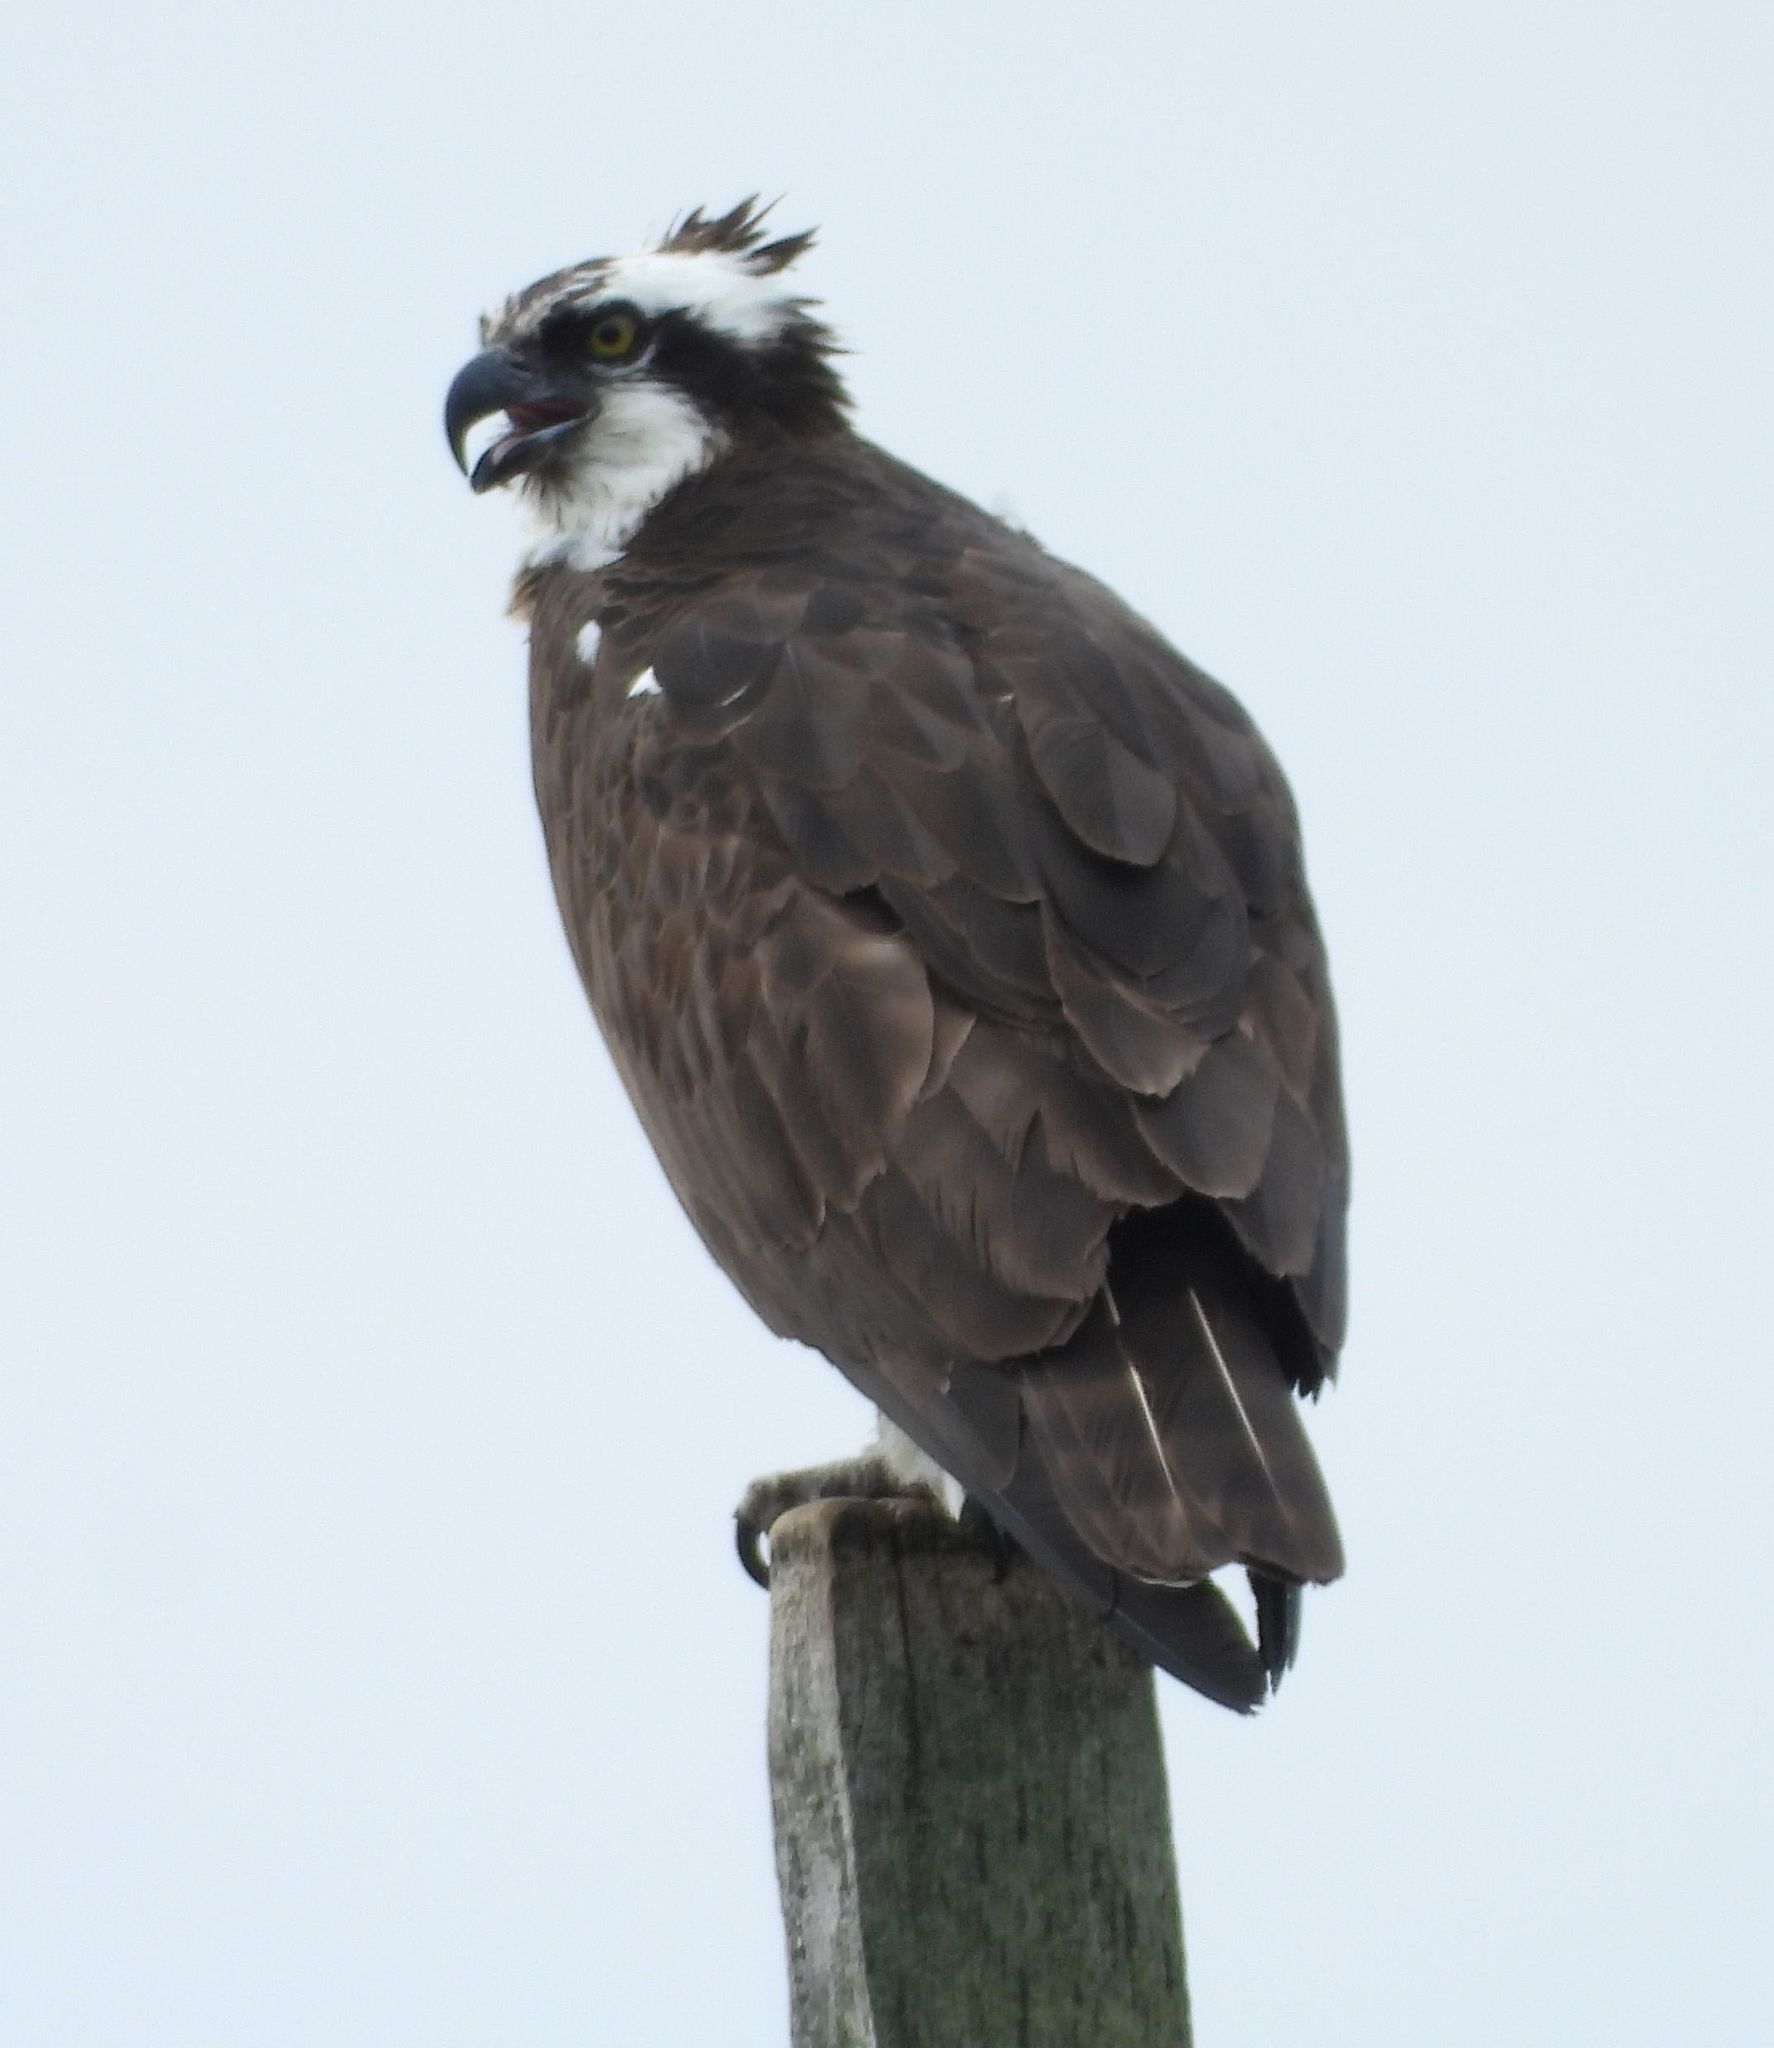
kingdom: Animalia
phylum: Chordata
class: Aves
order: Accipitriformes
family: Pandionidae
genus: Pandion
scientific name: Pandion haliaetus
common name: Osprey
